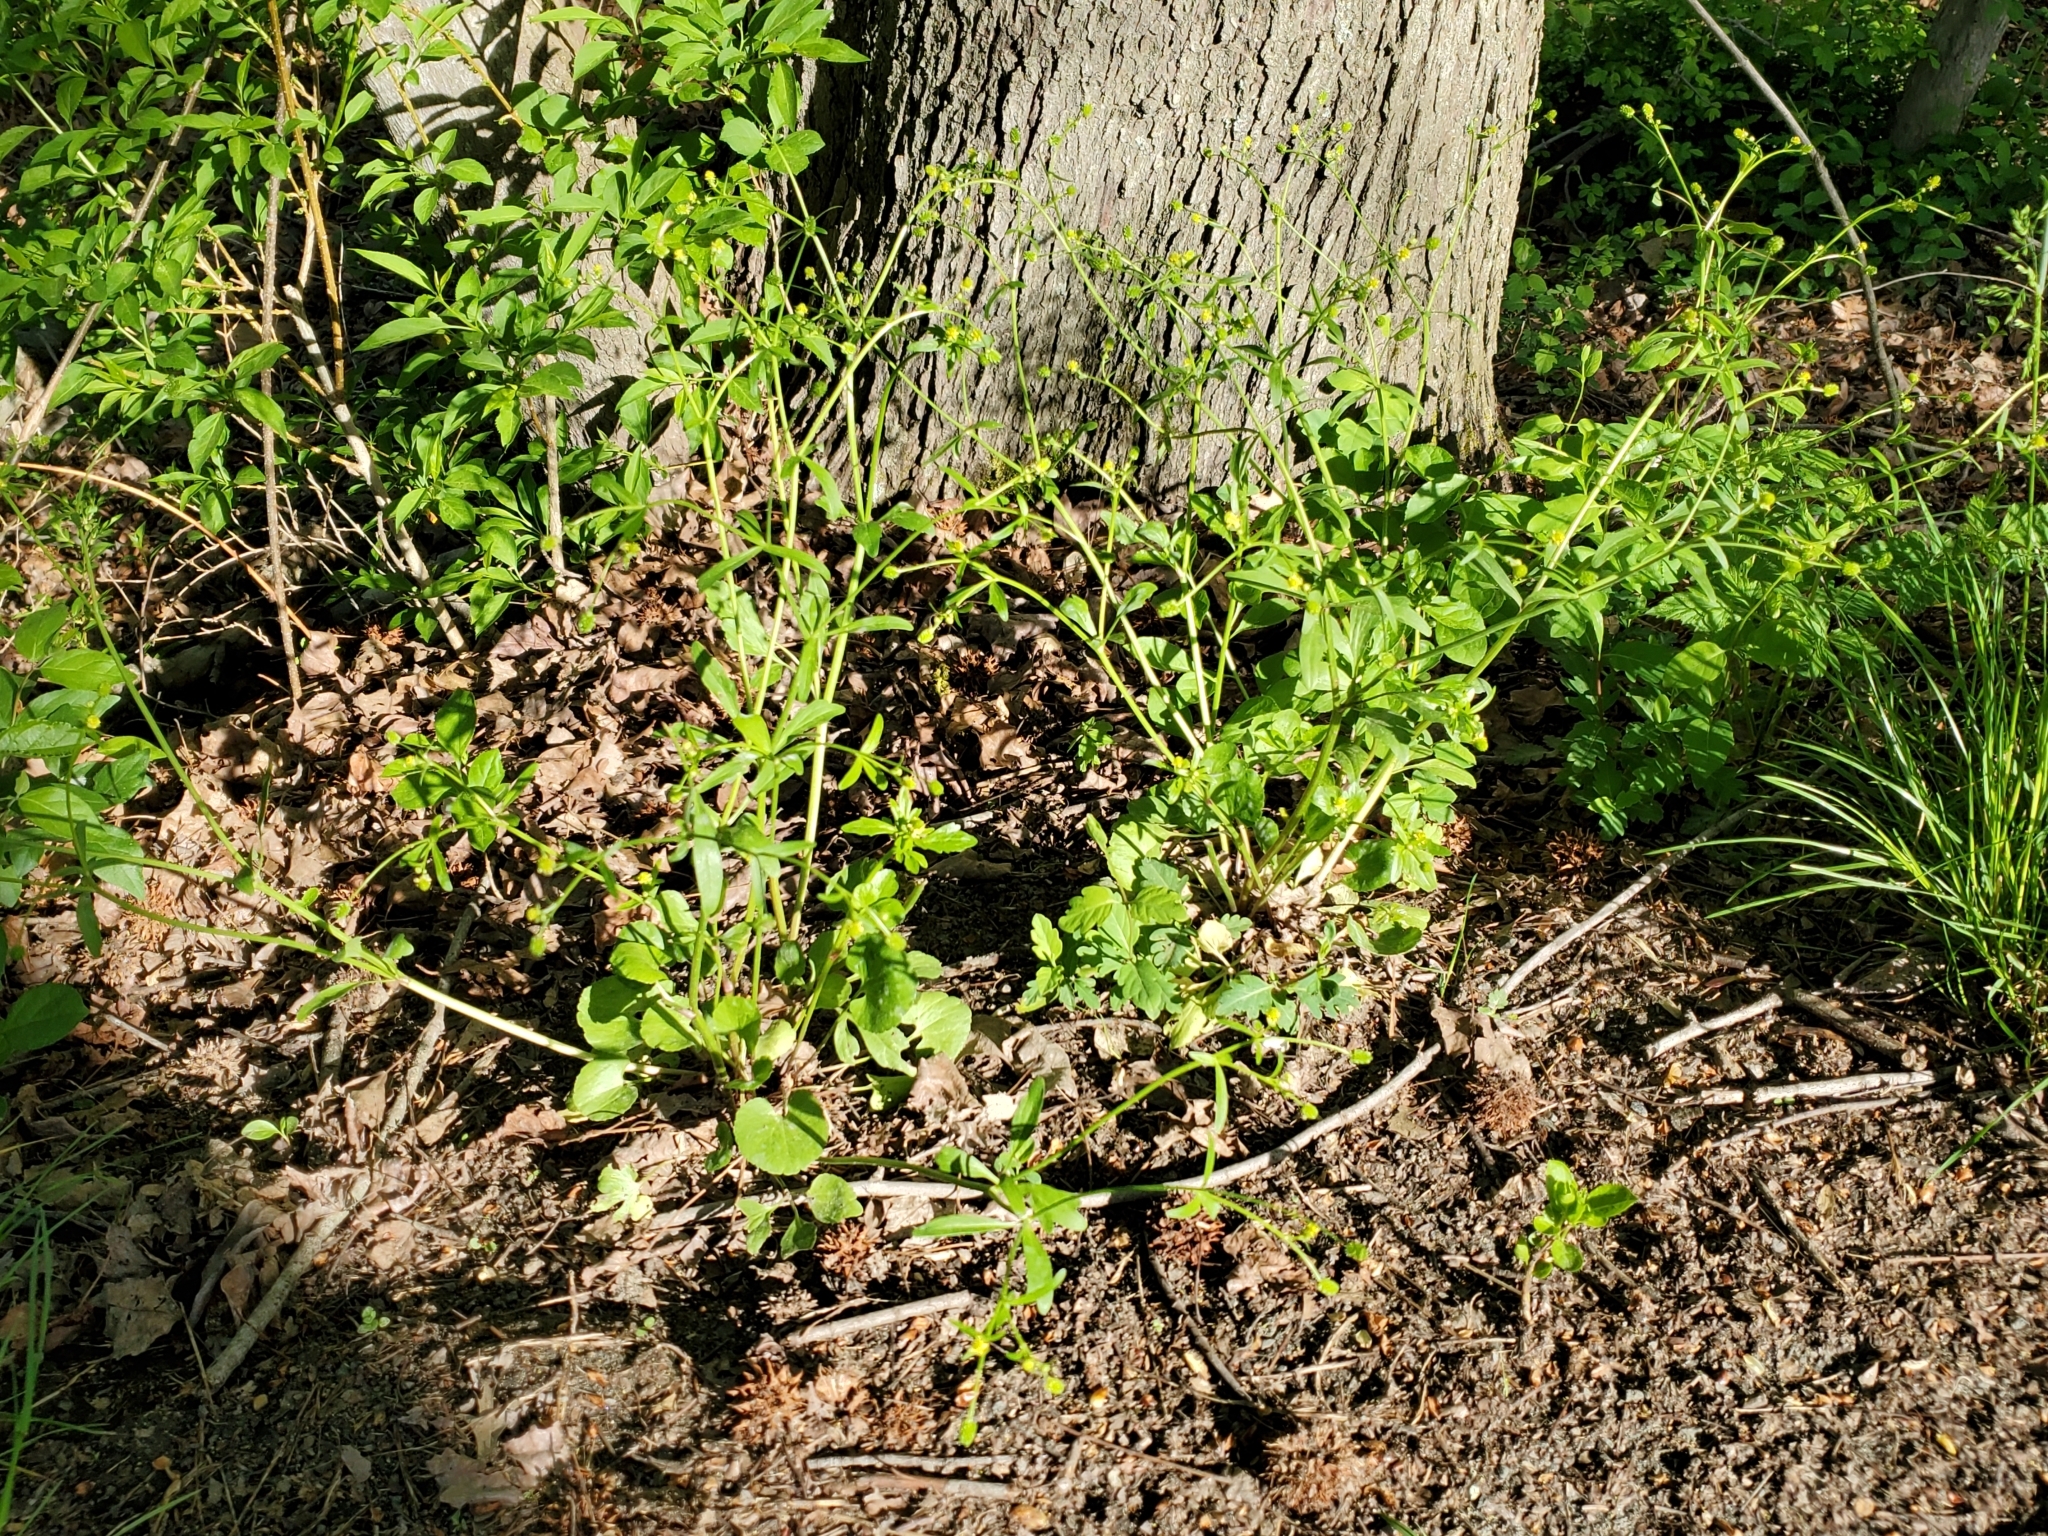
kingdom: Plantae
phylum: Tracheophyta
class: Magnoliopsida
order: Ranunculales
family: Ranunculaceae
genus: Ranunculus
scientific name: Ranunculus abortivus
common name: Early wood buttercup
